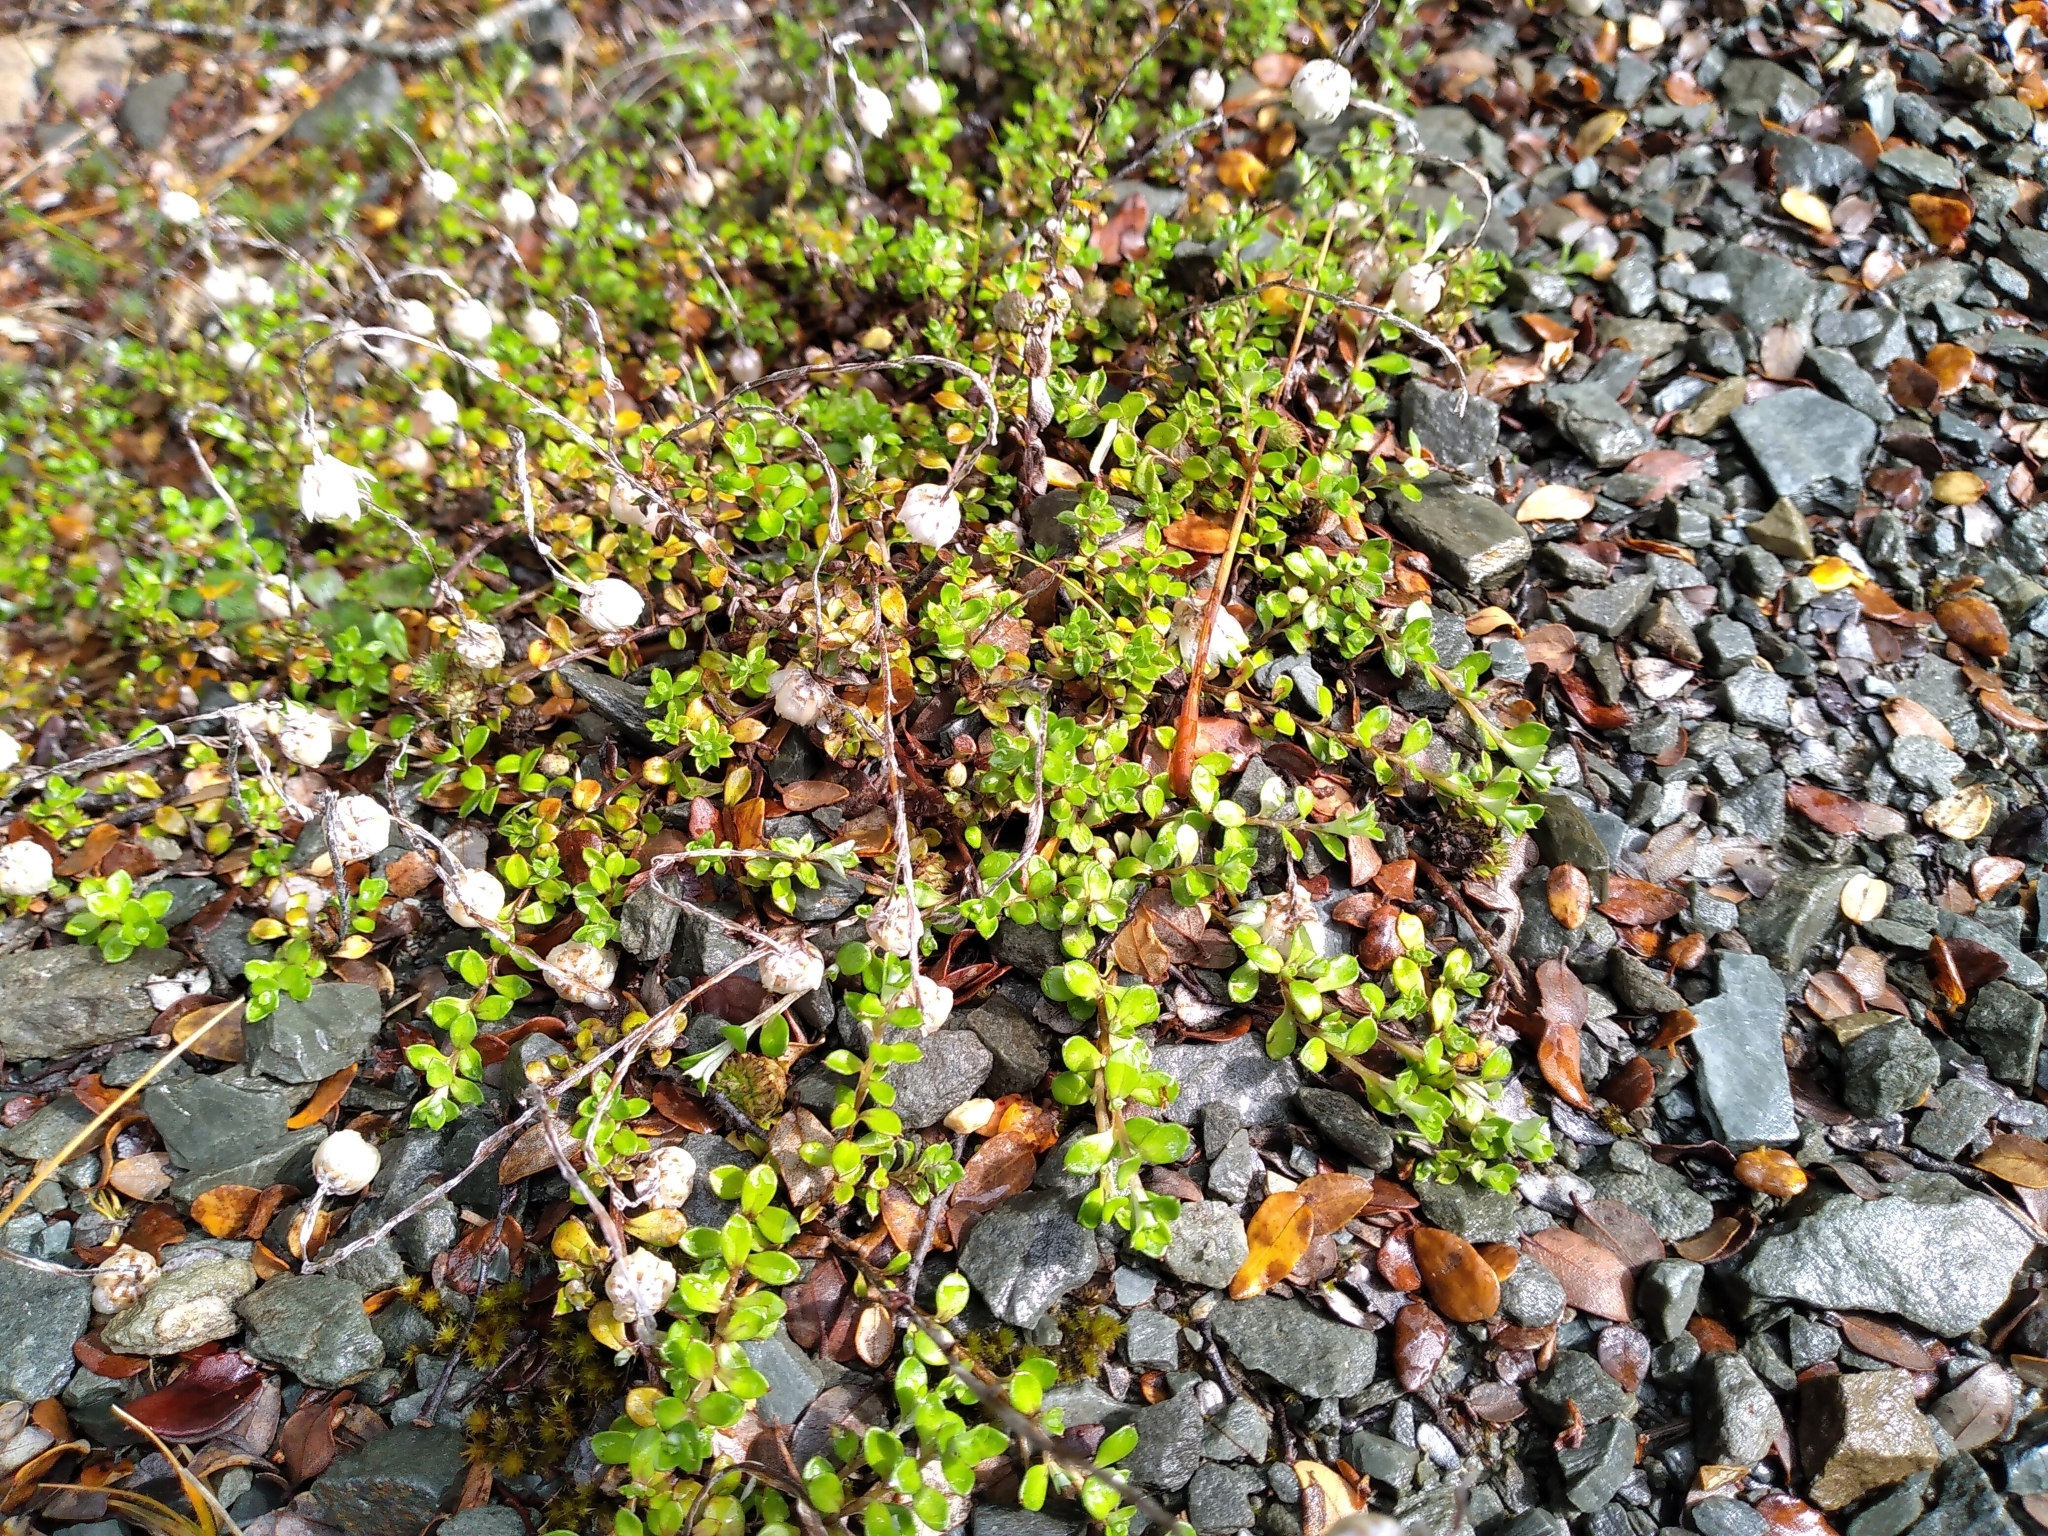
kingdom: Plantae
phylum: Tracheophyta
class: Magnoliopsida
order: Asterales
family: Asteraceae
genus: Anaphalioides
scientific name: Anaphalioides bellidioides
